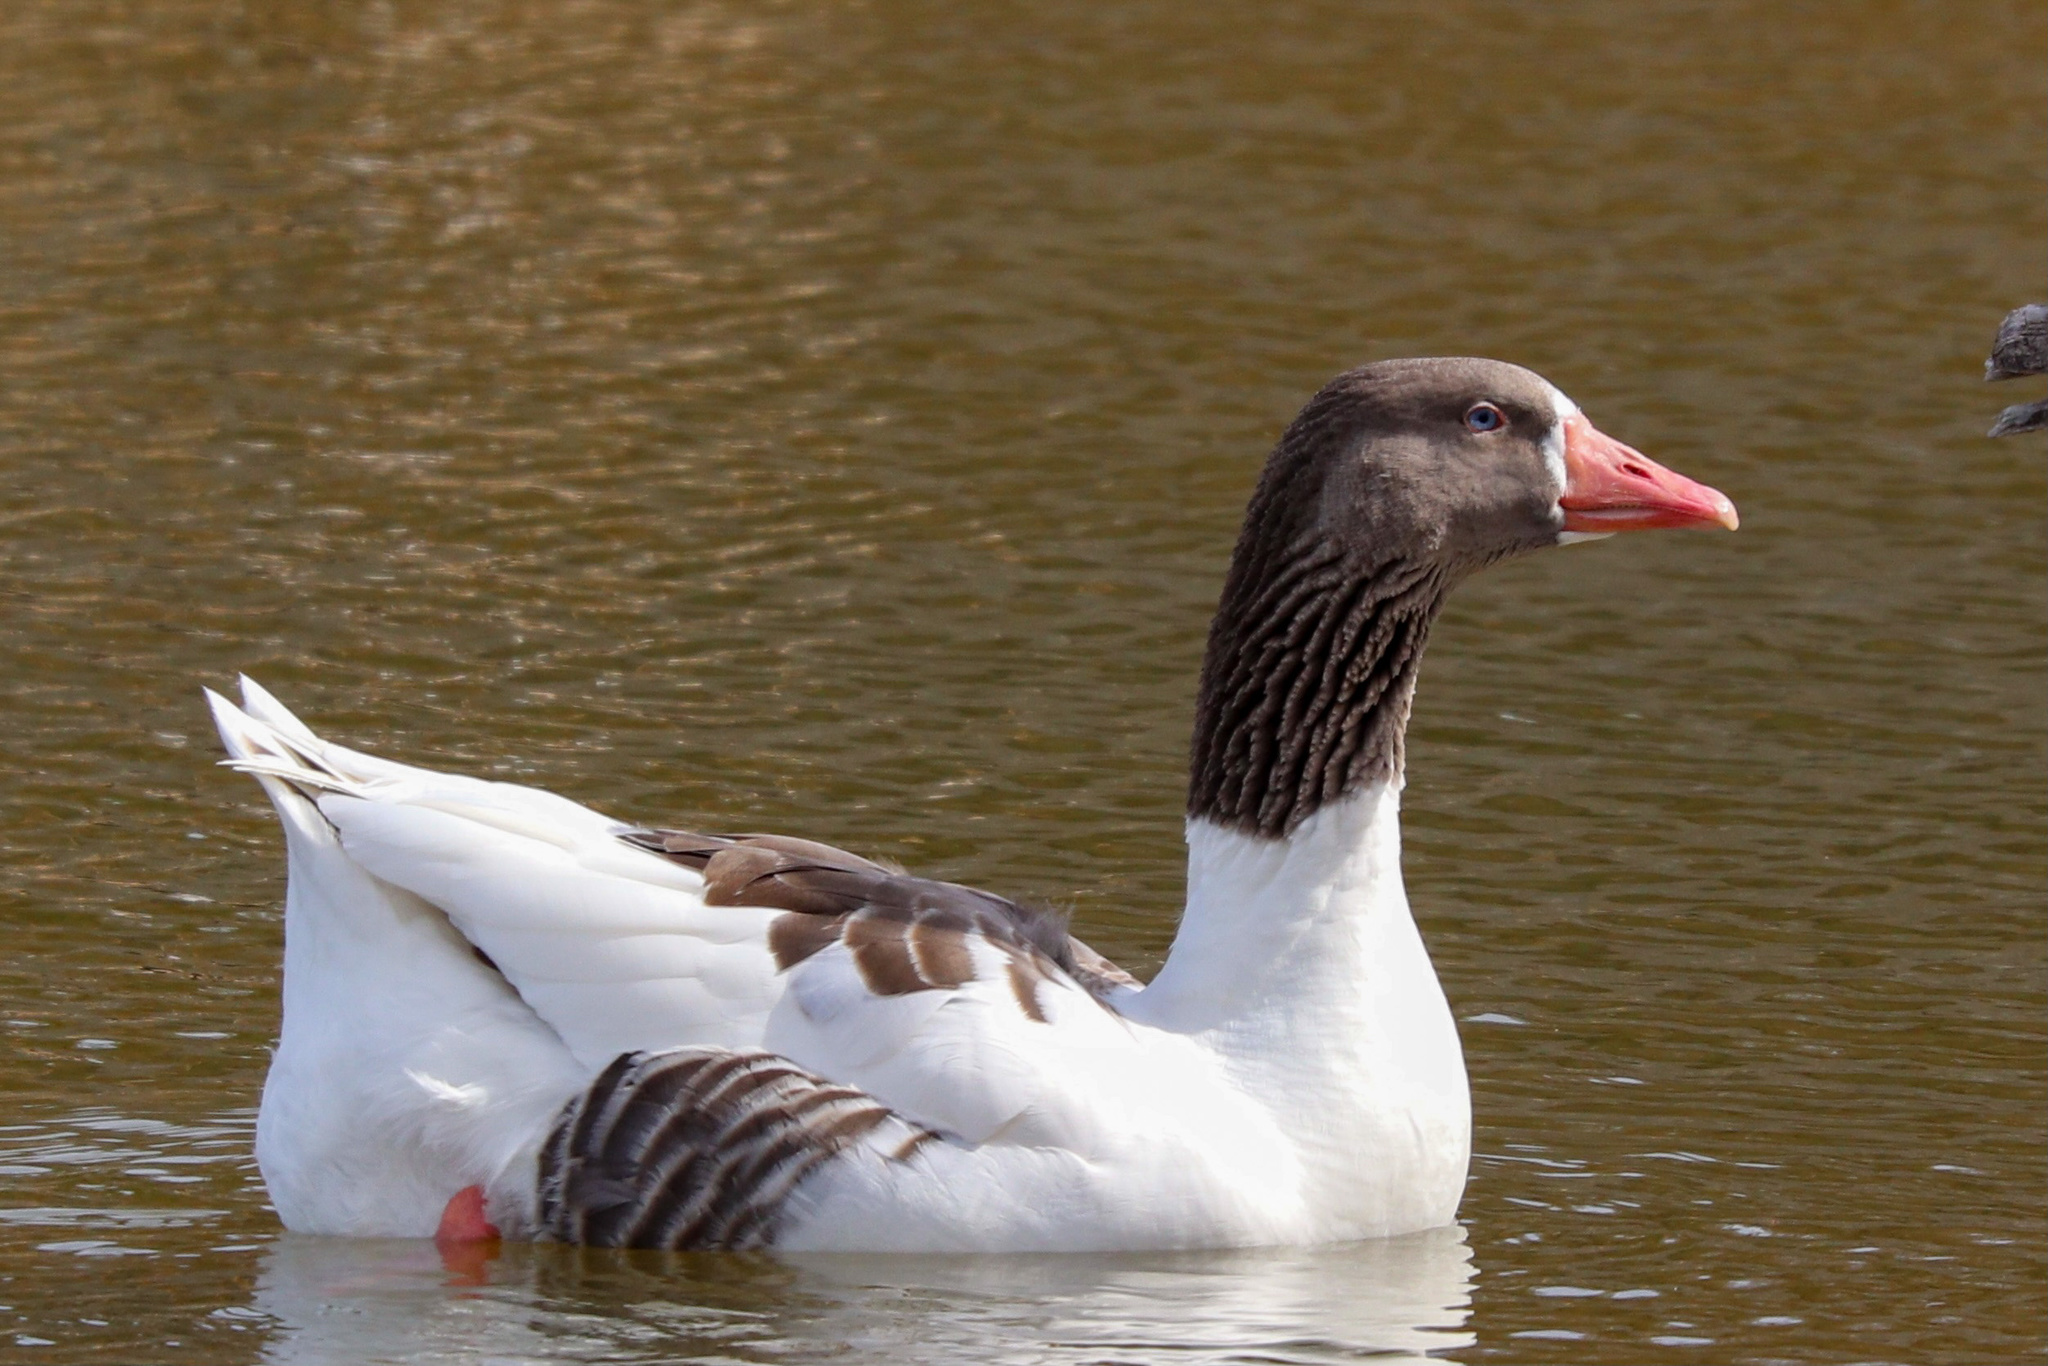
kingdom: Animalia
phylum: Chordata
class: Aves
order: Anseriformes
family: Anatidae
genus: Anser
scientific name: Anser anser
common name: Greylag goose
